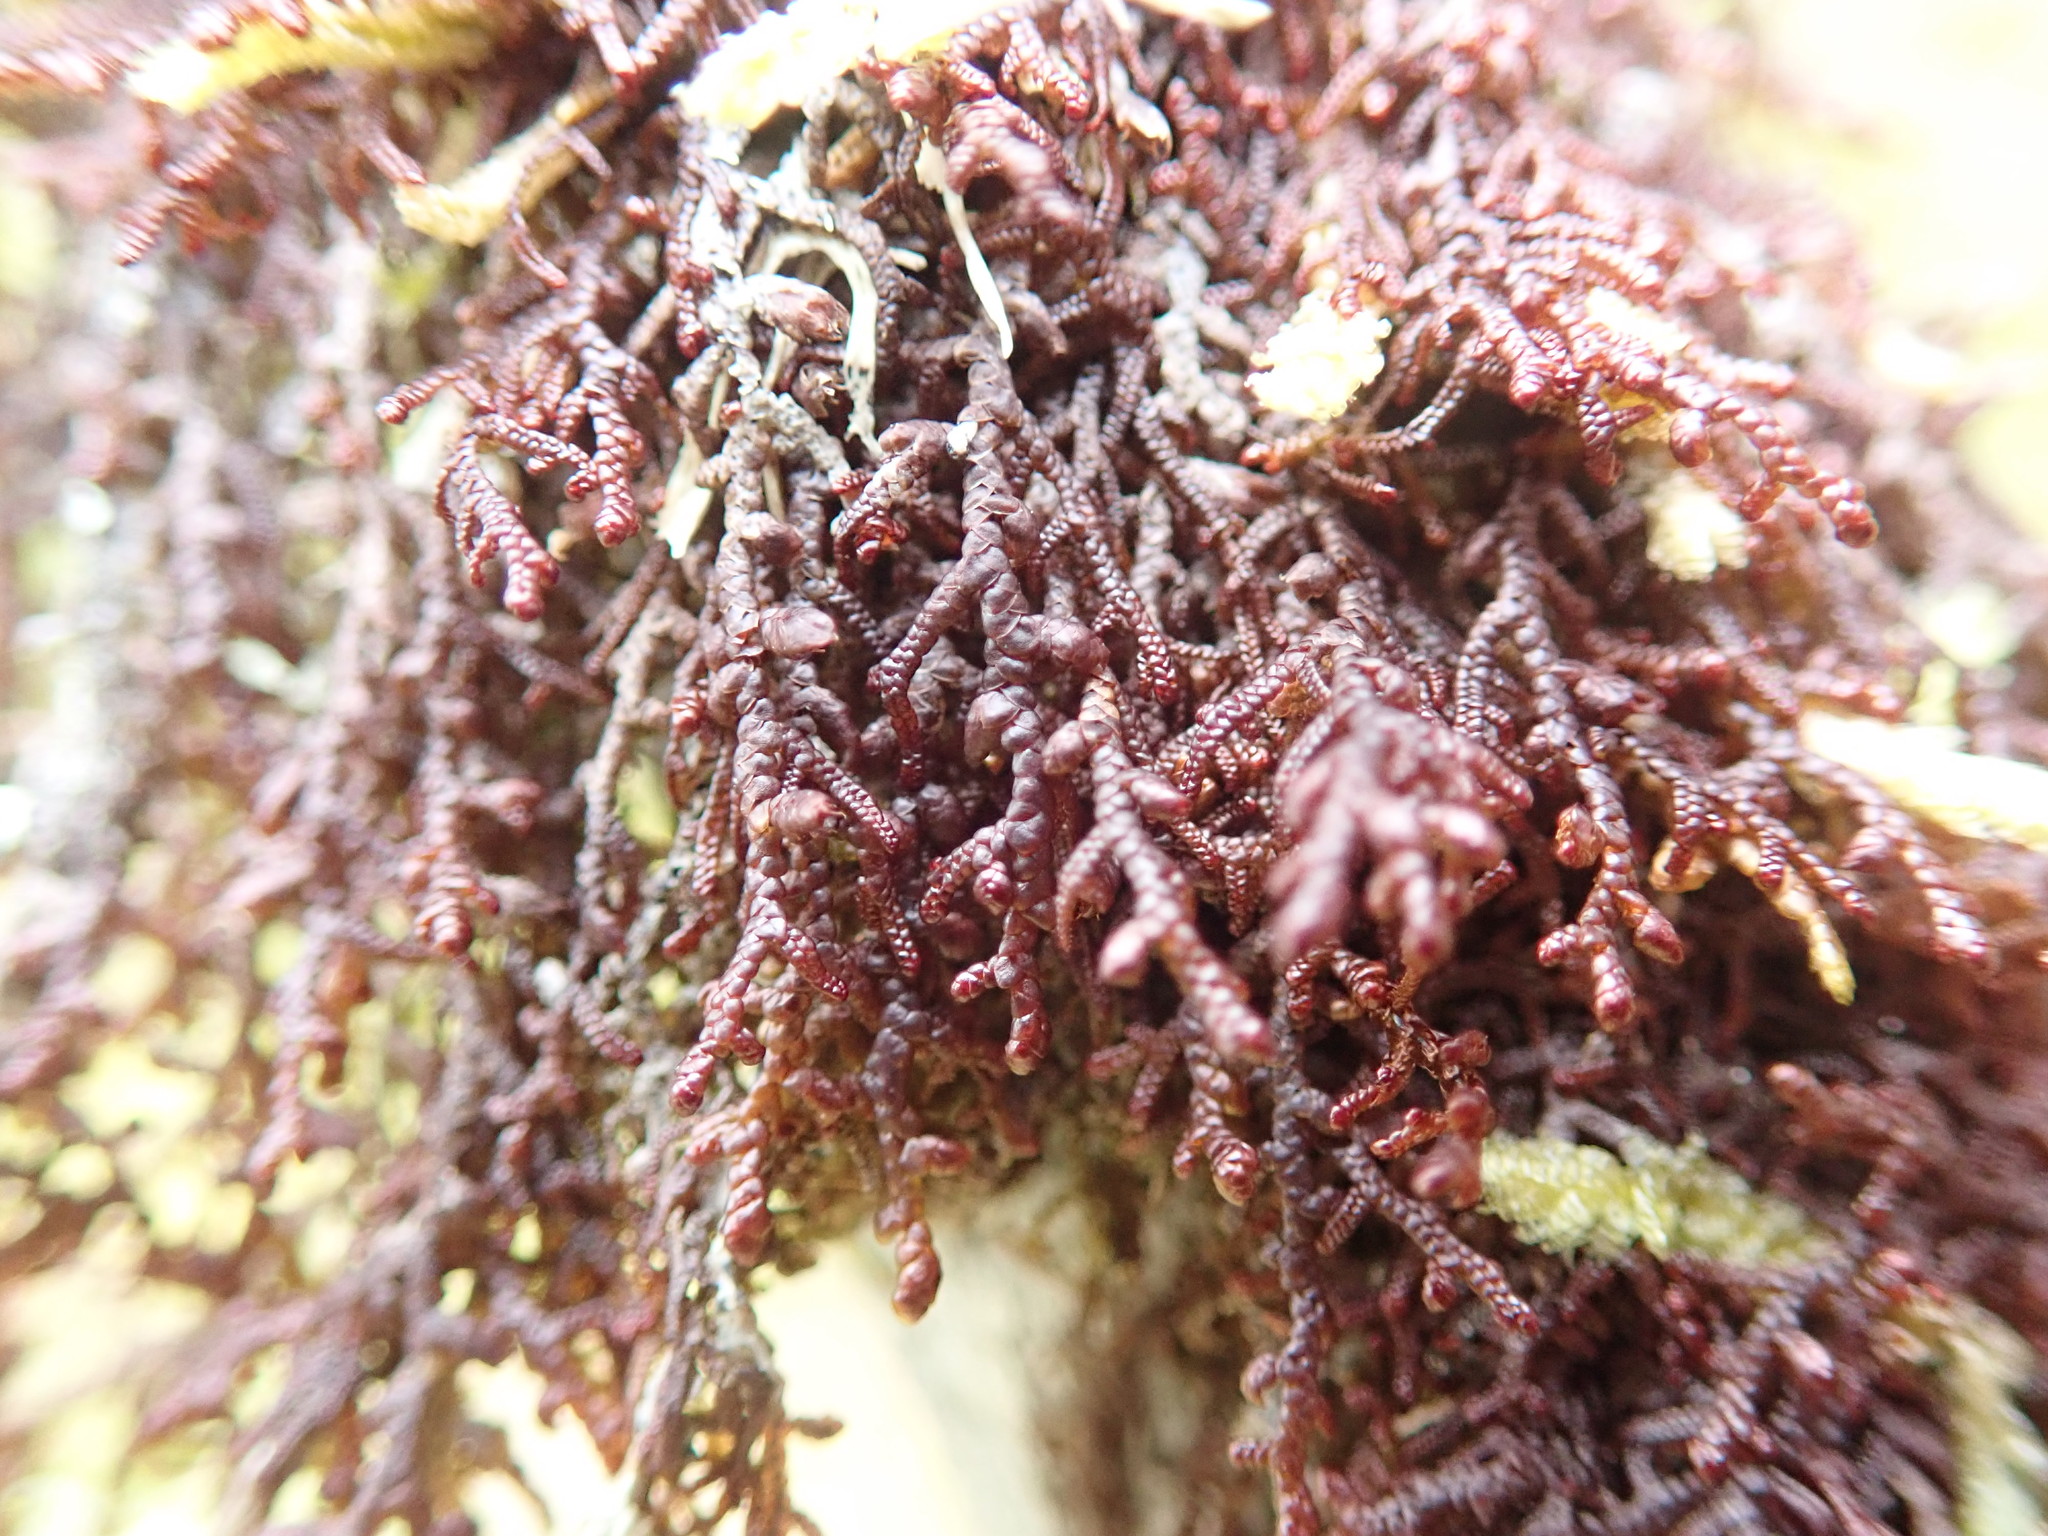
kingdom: Plantae
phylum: Marchantiophyta
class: Jungermanniopsida
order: Porellales
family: Frullaniaceae
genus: Frullania
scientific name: Frullania nisquallensis
